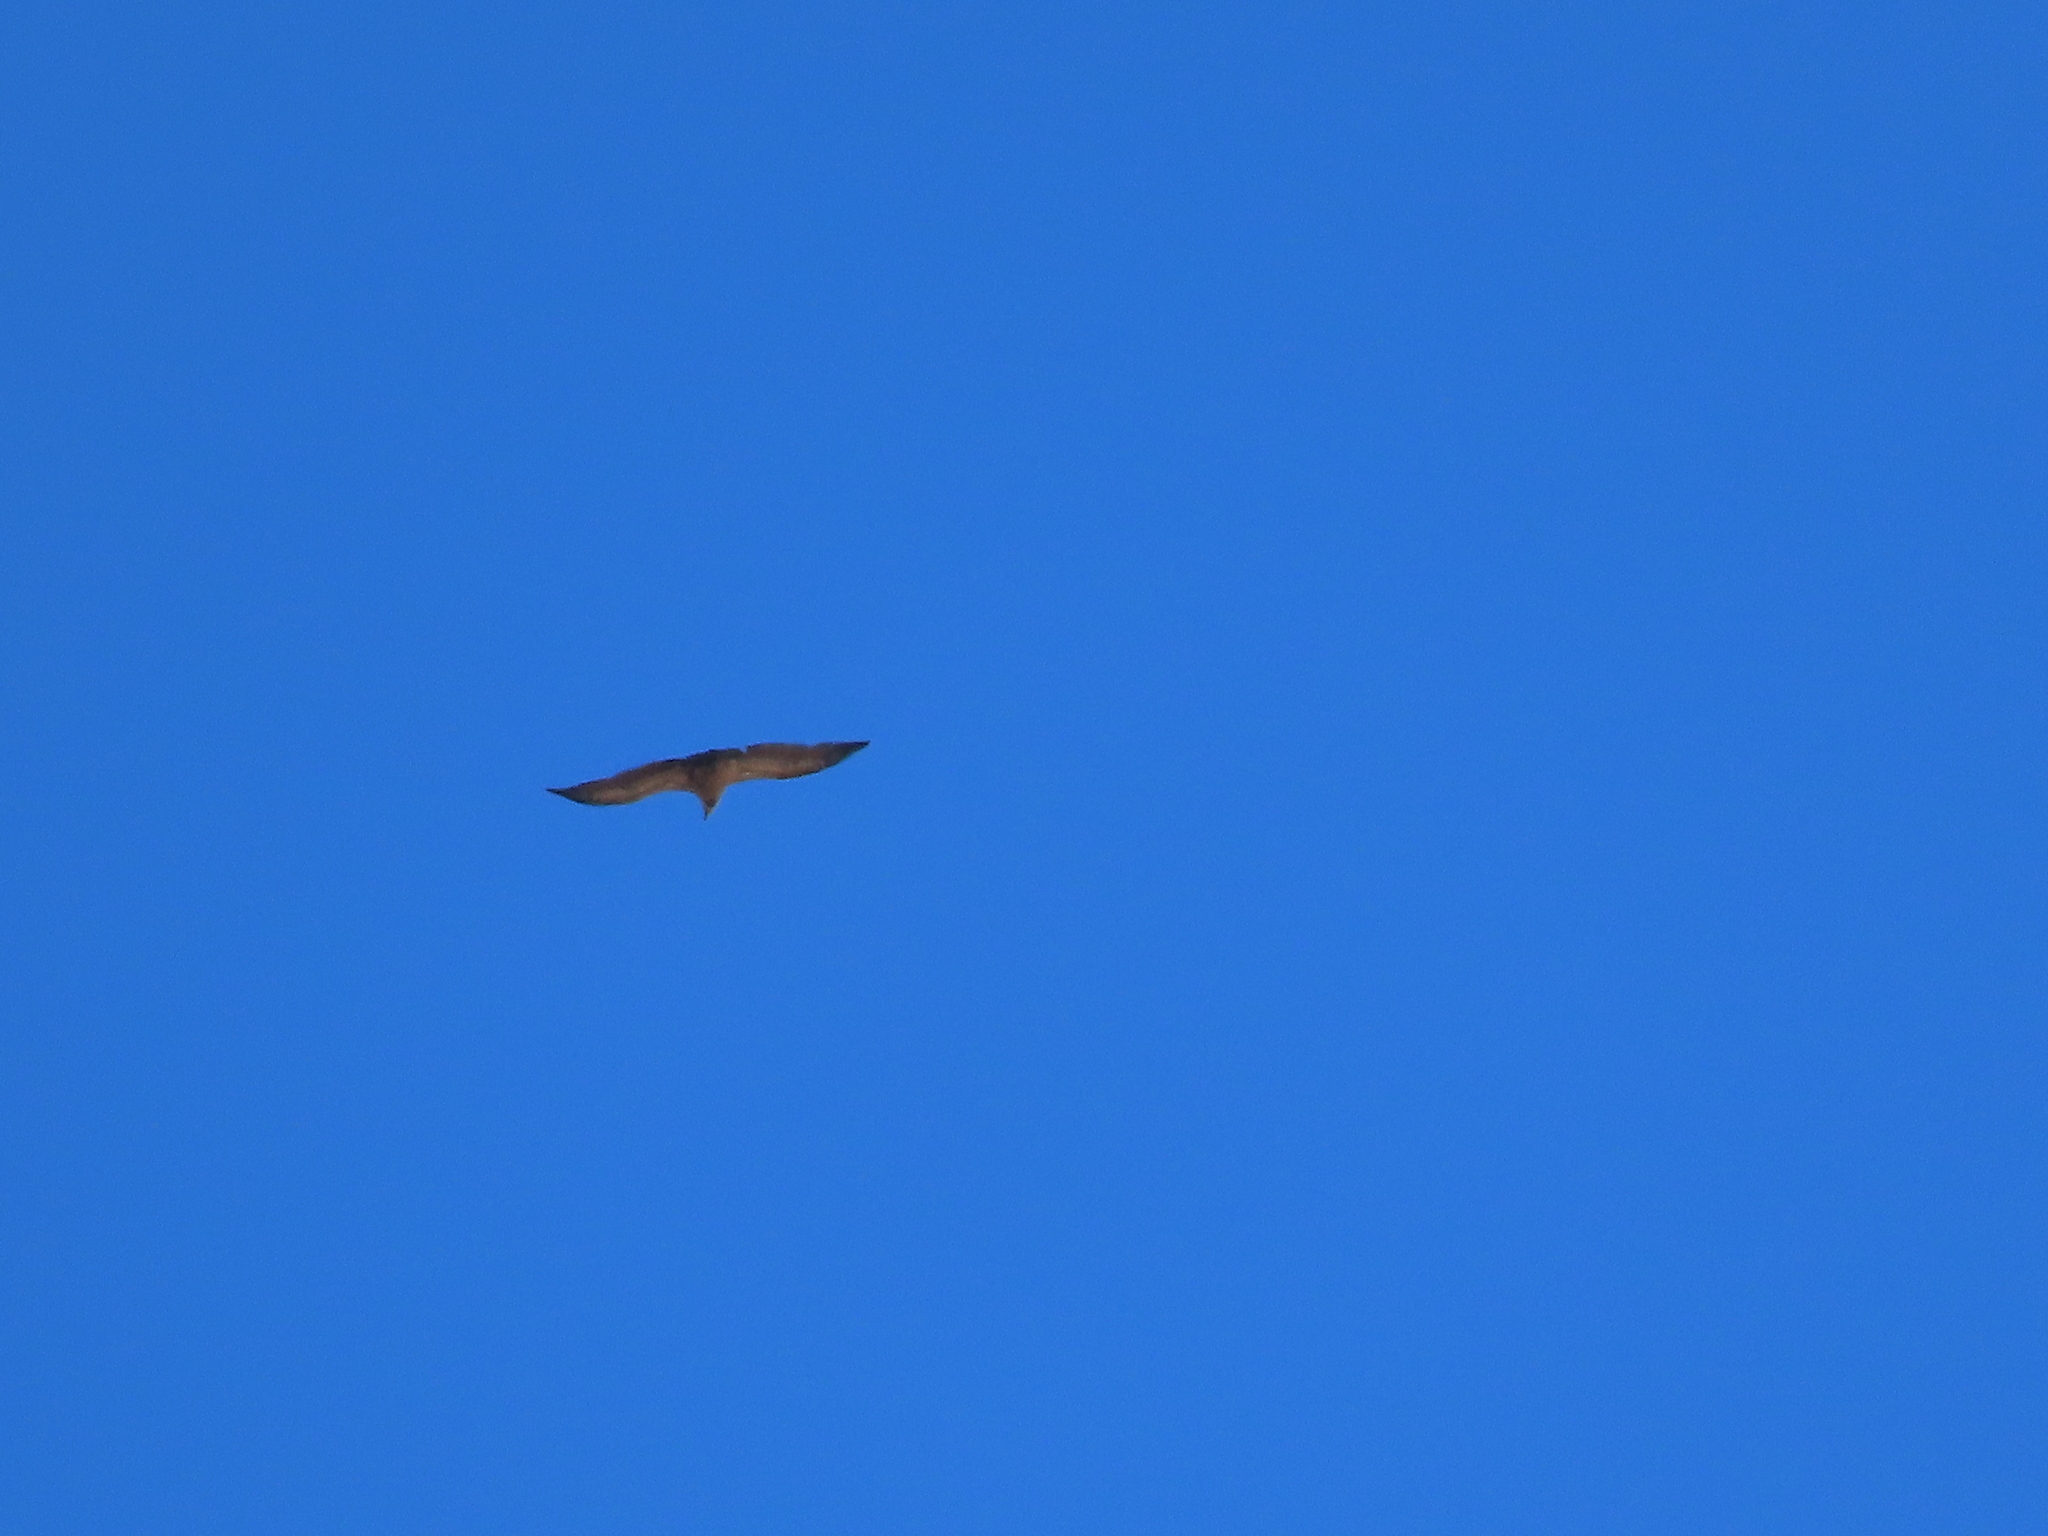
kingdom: Animalia
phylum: Chordata
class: Aves
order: Accipitriformes
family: Accipitridae
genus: Gyps
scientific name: Gyps fulvus
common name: Griffon vulture
